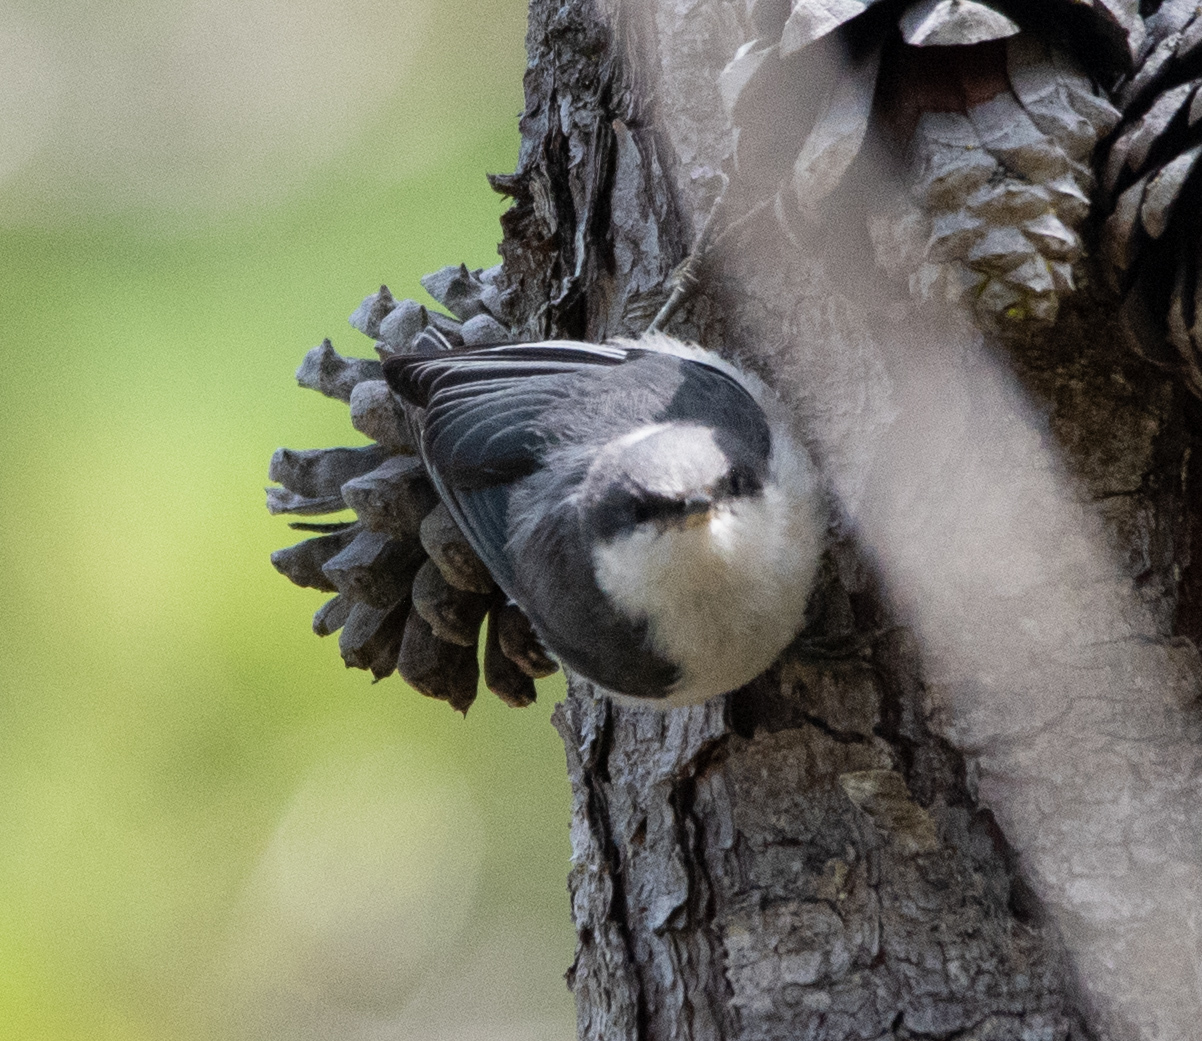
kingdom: Animalia
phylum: Chordata
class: Aves
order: Passeriformes
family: Sittidae
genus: Sitta
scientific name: Sitta pygmaea
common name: Pygmy nuthatch
